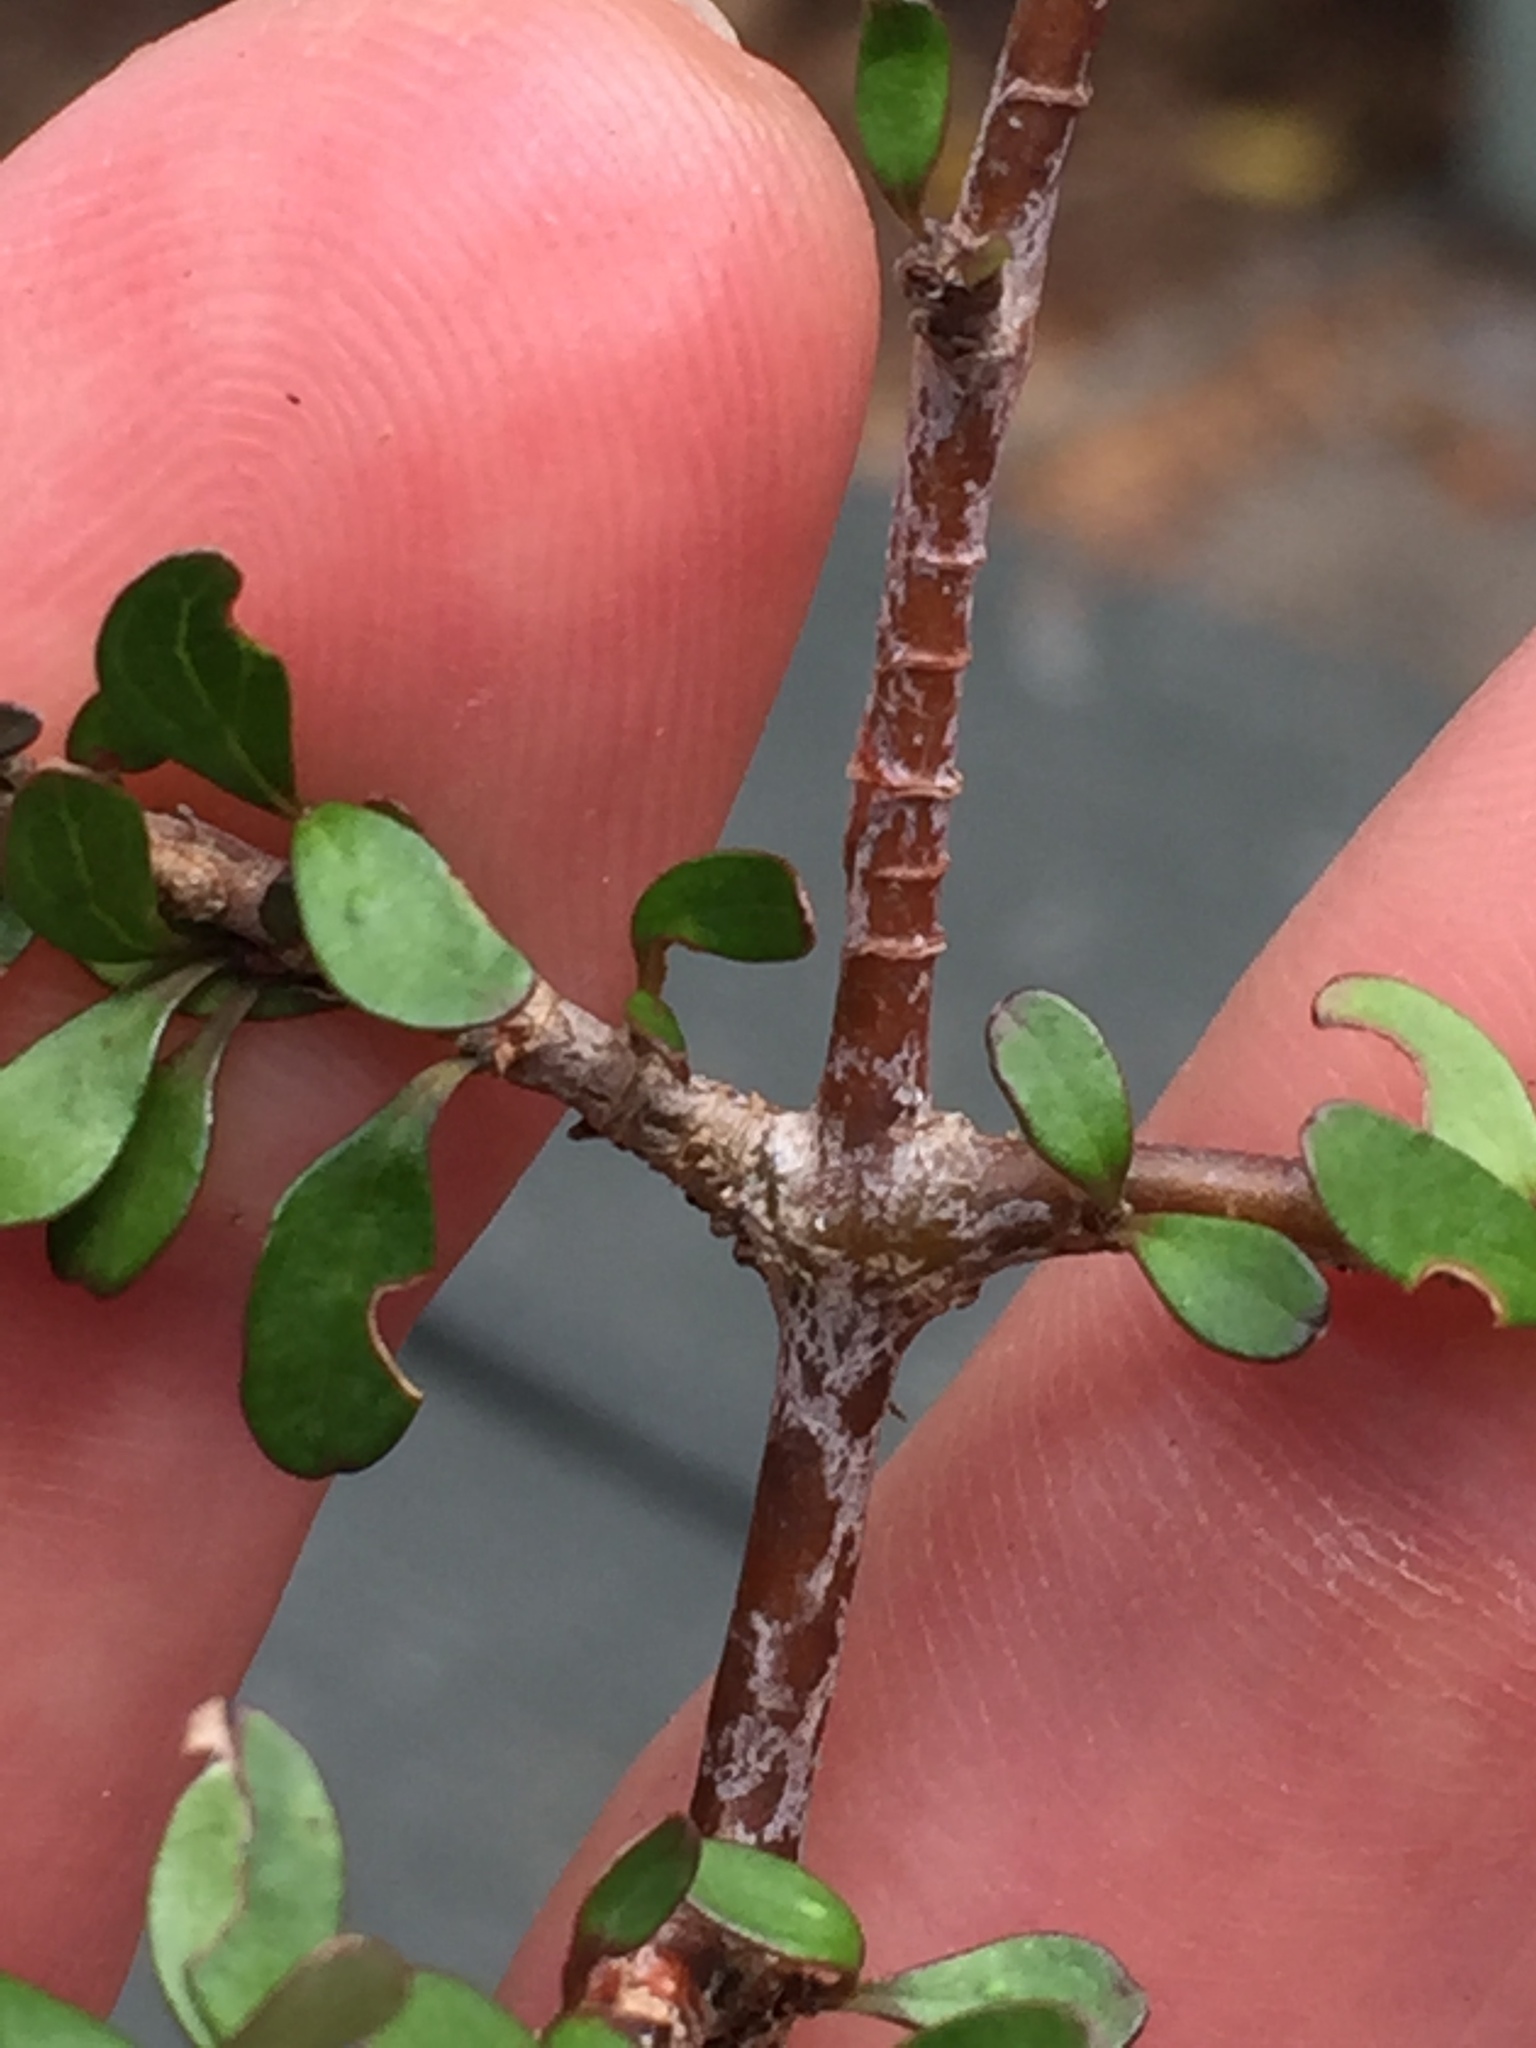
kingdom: Plantae
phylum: Tracheophyta
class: Magnoliopsida
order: Gentianales
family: Rubiaceae
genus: Coprosma
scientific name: Coprosma rigida
